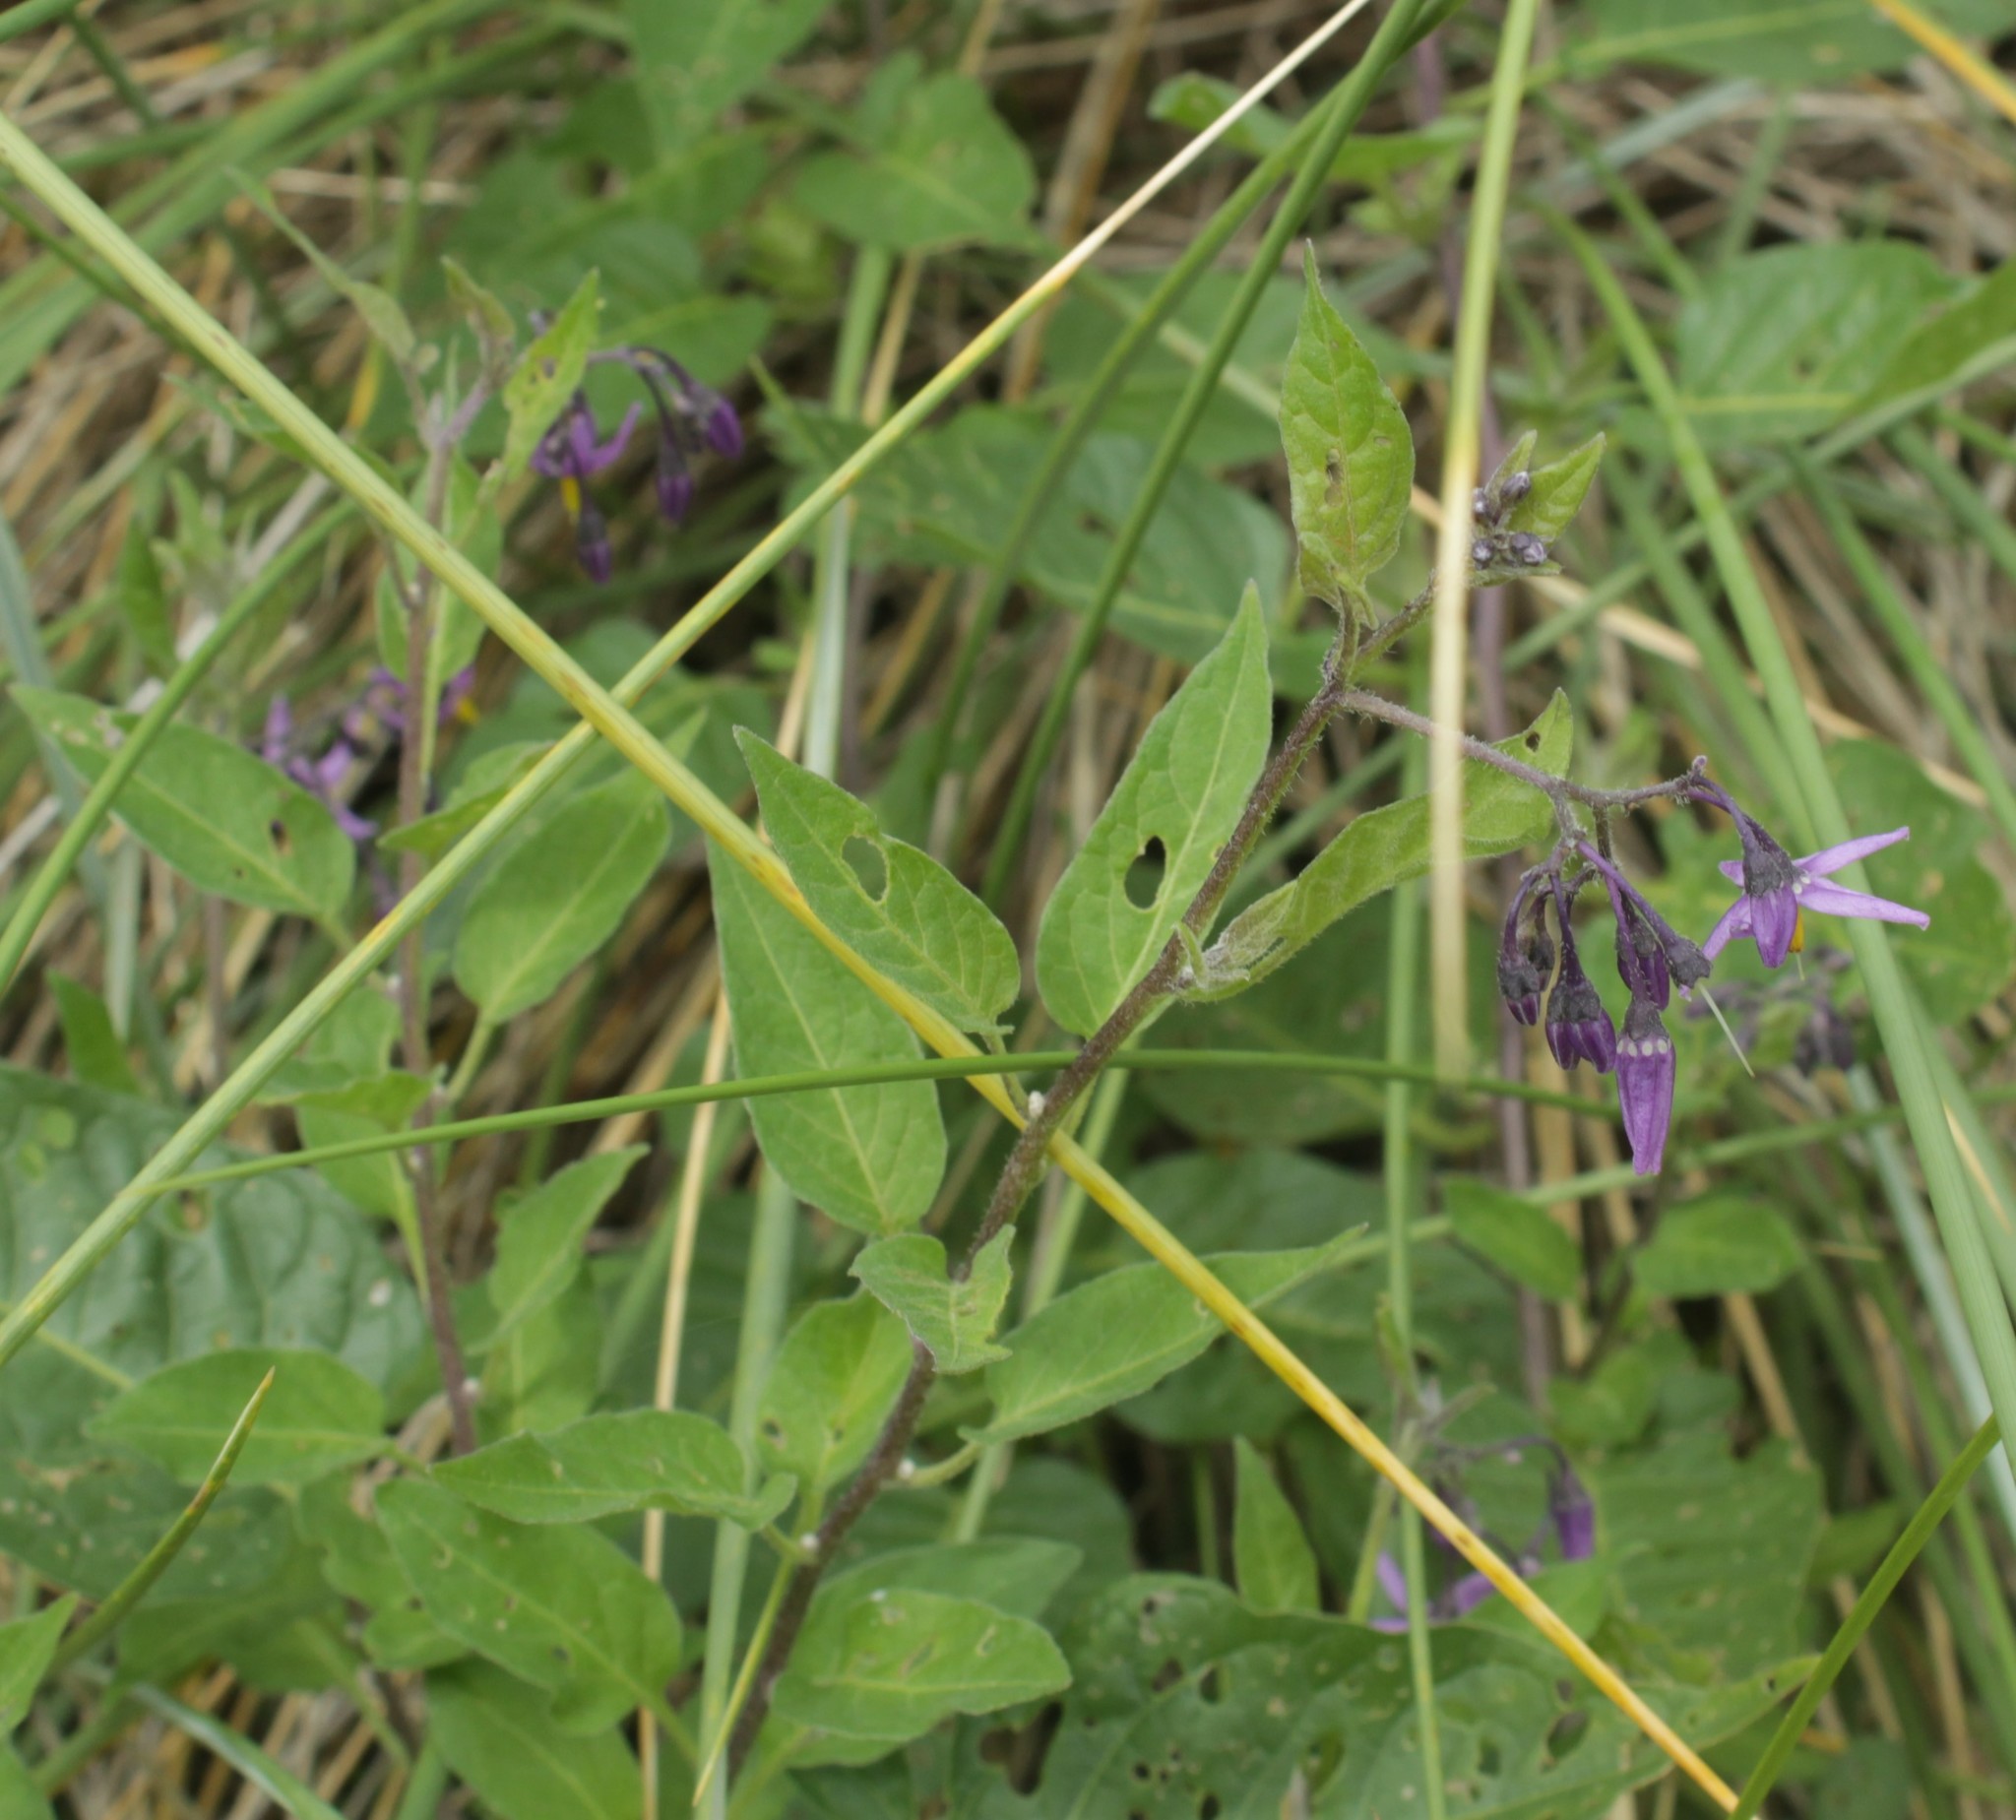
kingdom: Plantae
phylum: Tracheophyta
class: Magnoliopsida
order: Solanales
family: Solanaceae
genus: Solanum
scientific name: Solanum dulcamara
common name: Climbing nightshade
